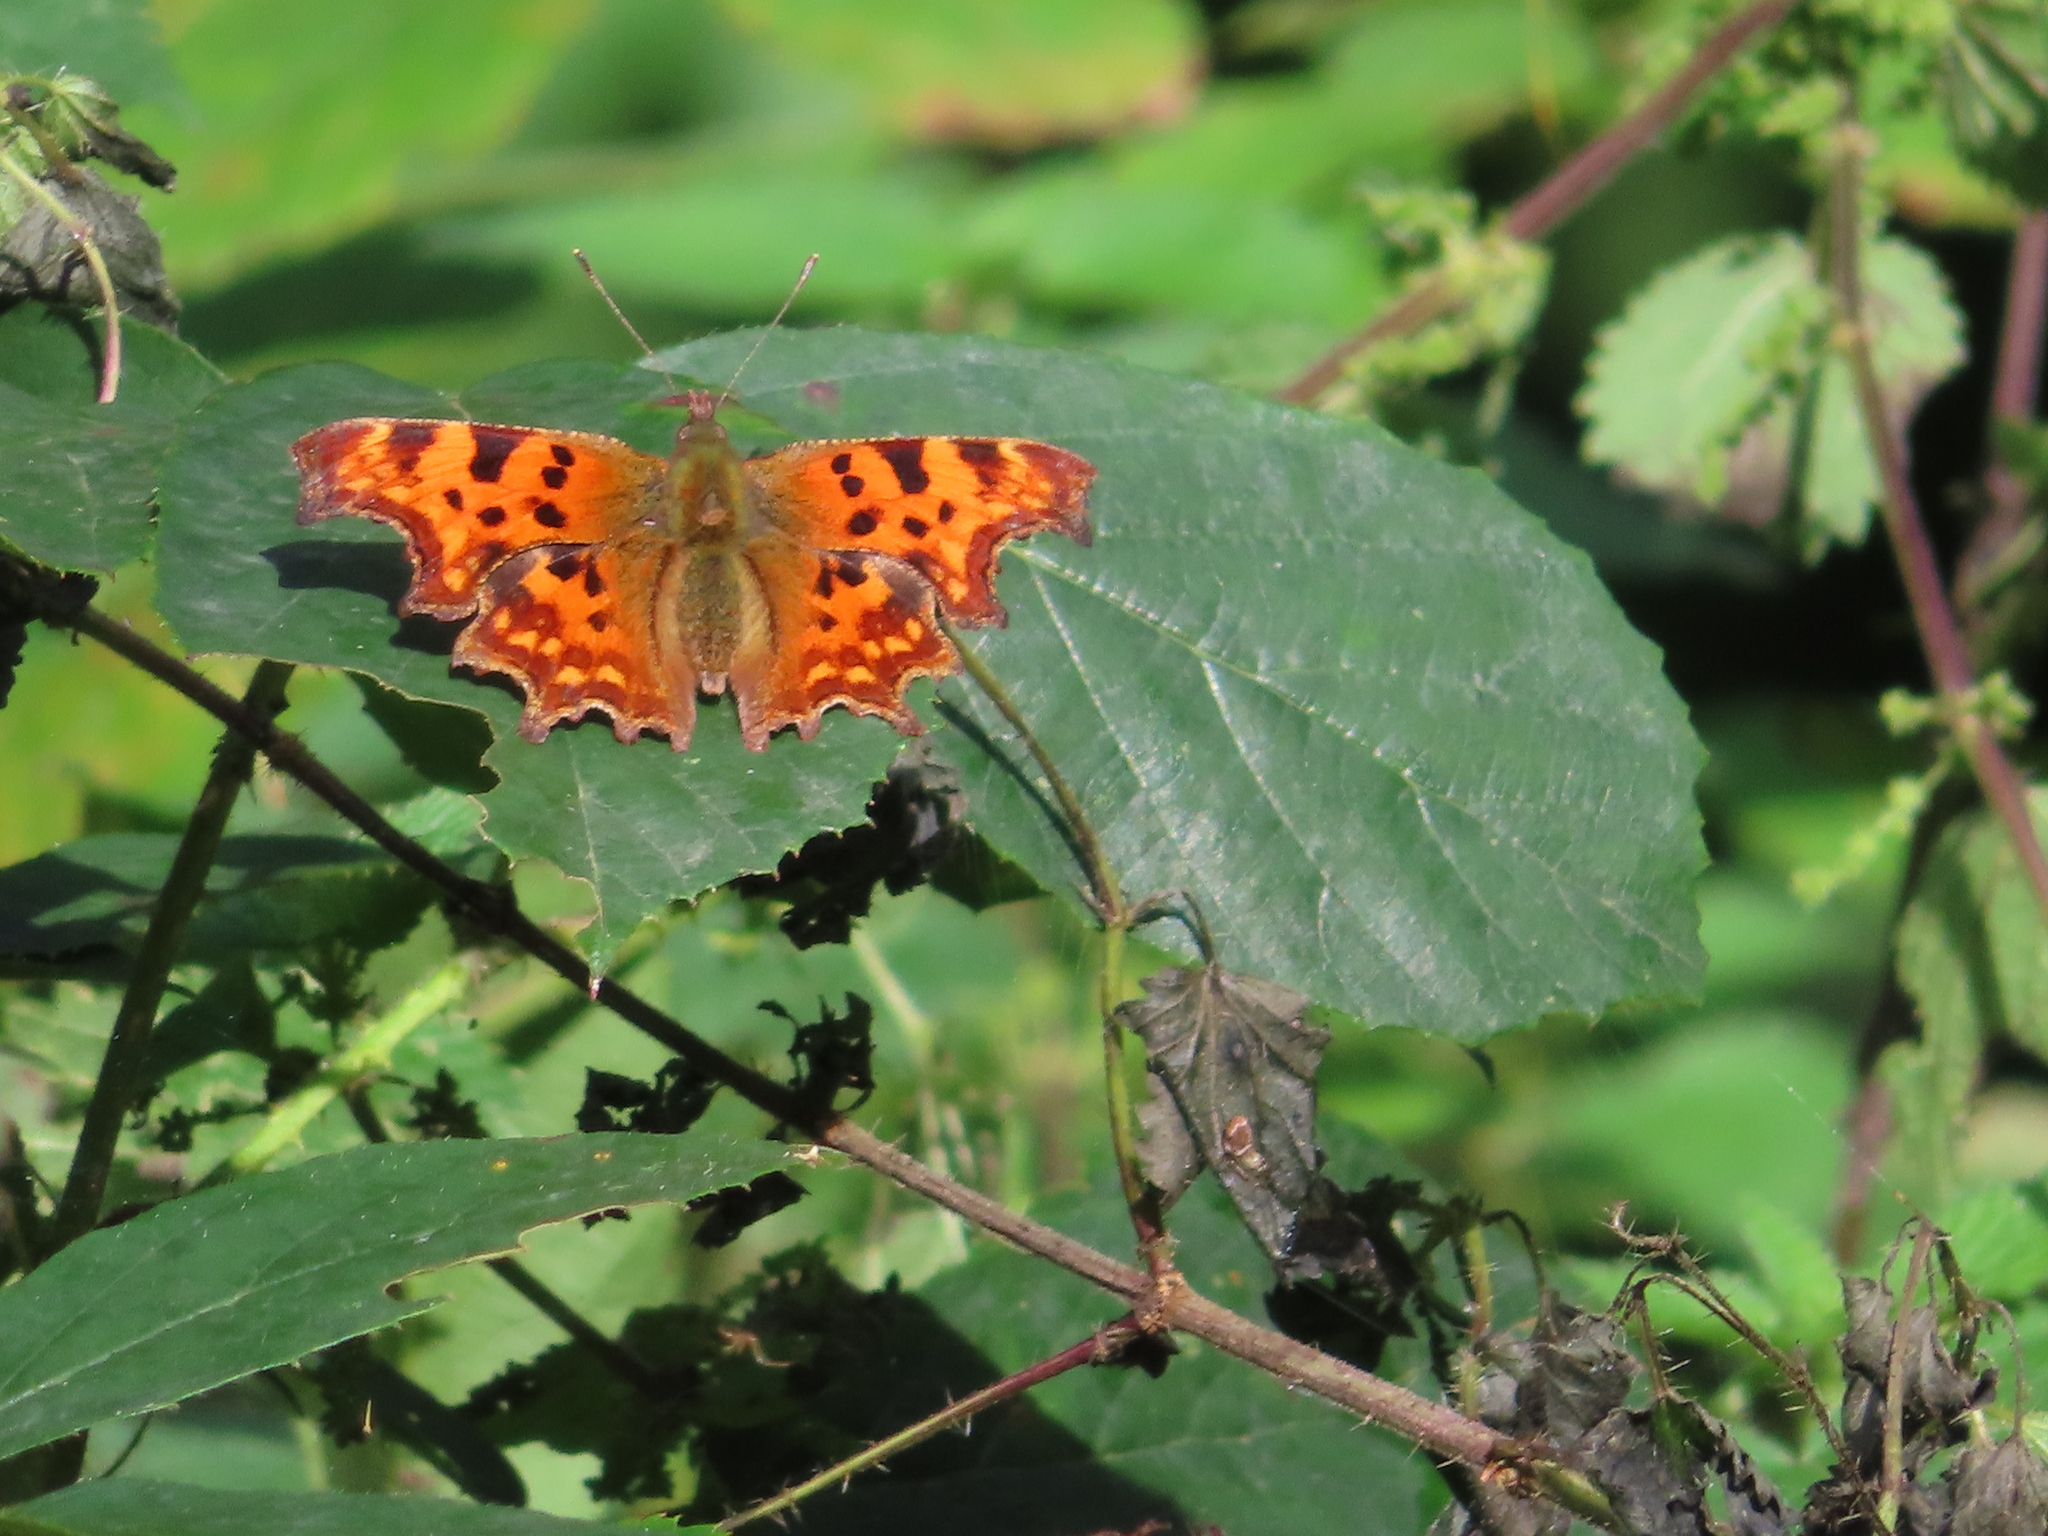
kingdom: Animalia
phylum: Arthropoda
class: Insecta
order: Lepidoptera
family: Nymphalidae
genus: Polygonia
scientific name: Polygonia c-album
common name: Comma
